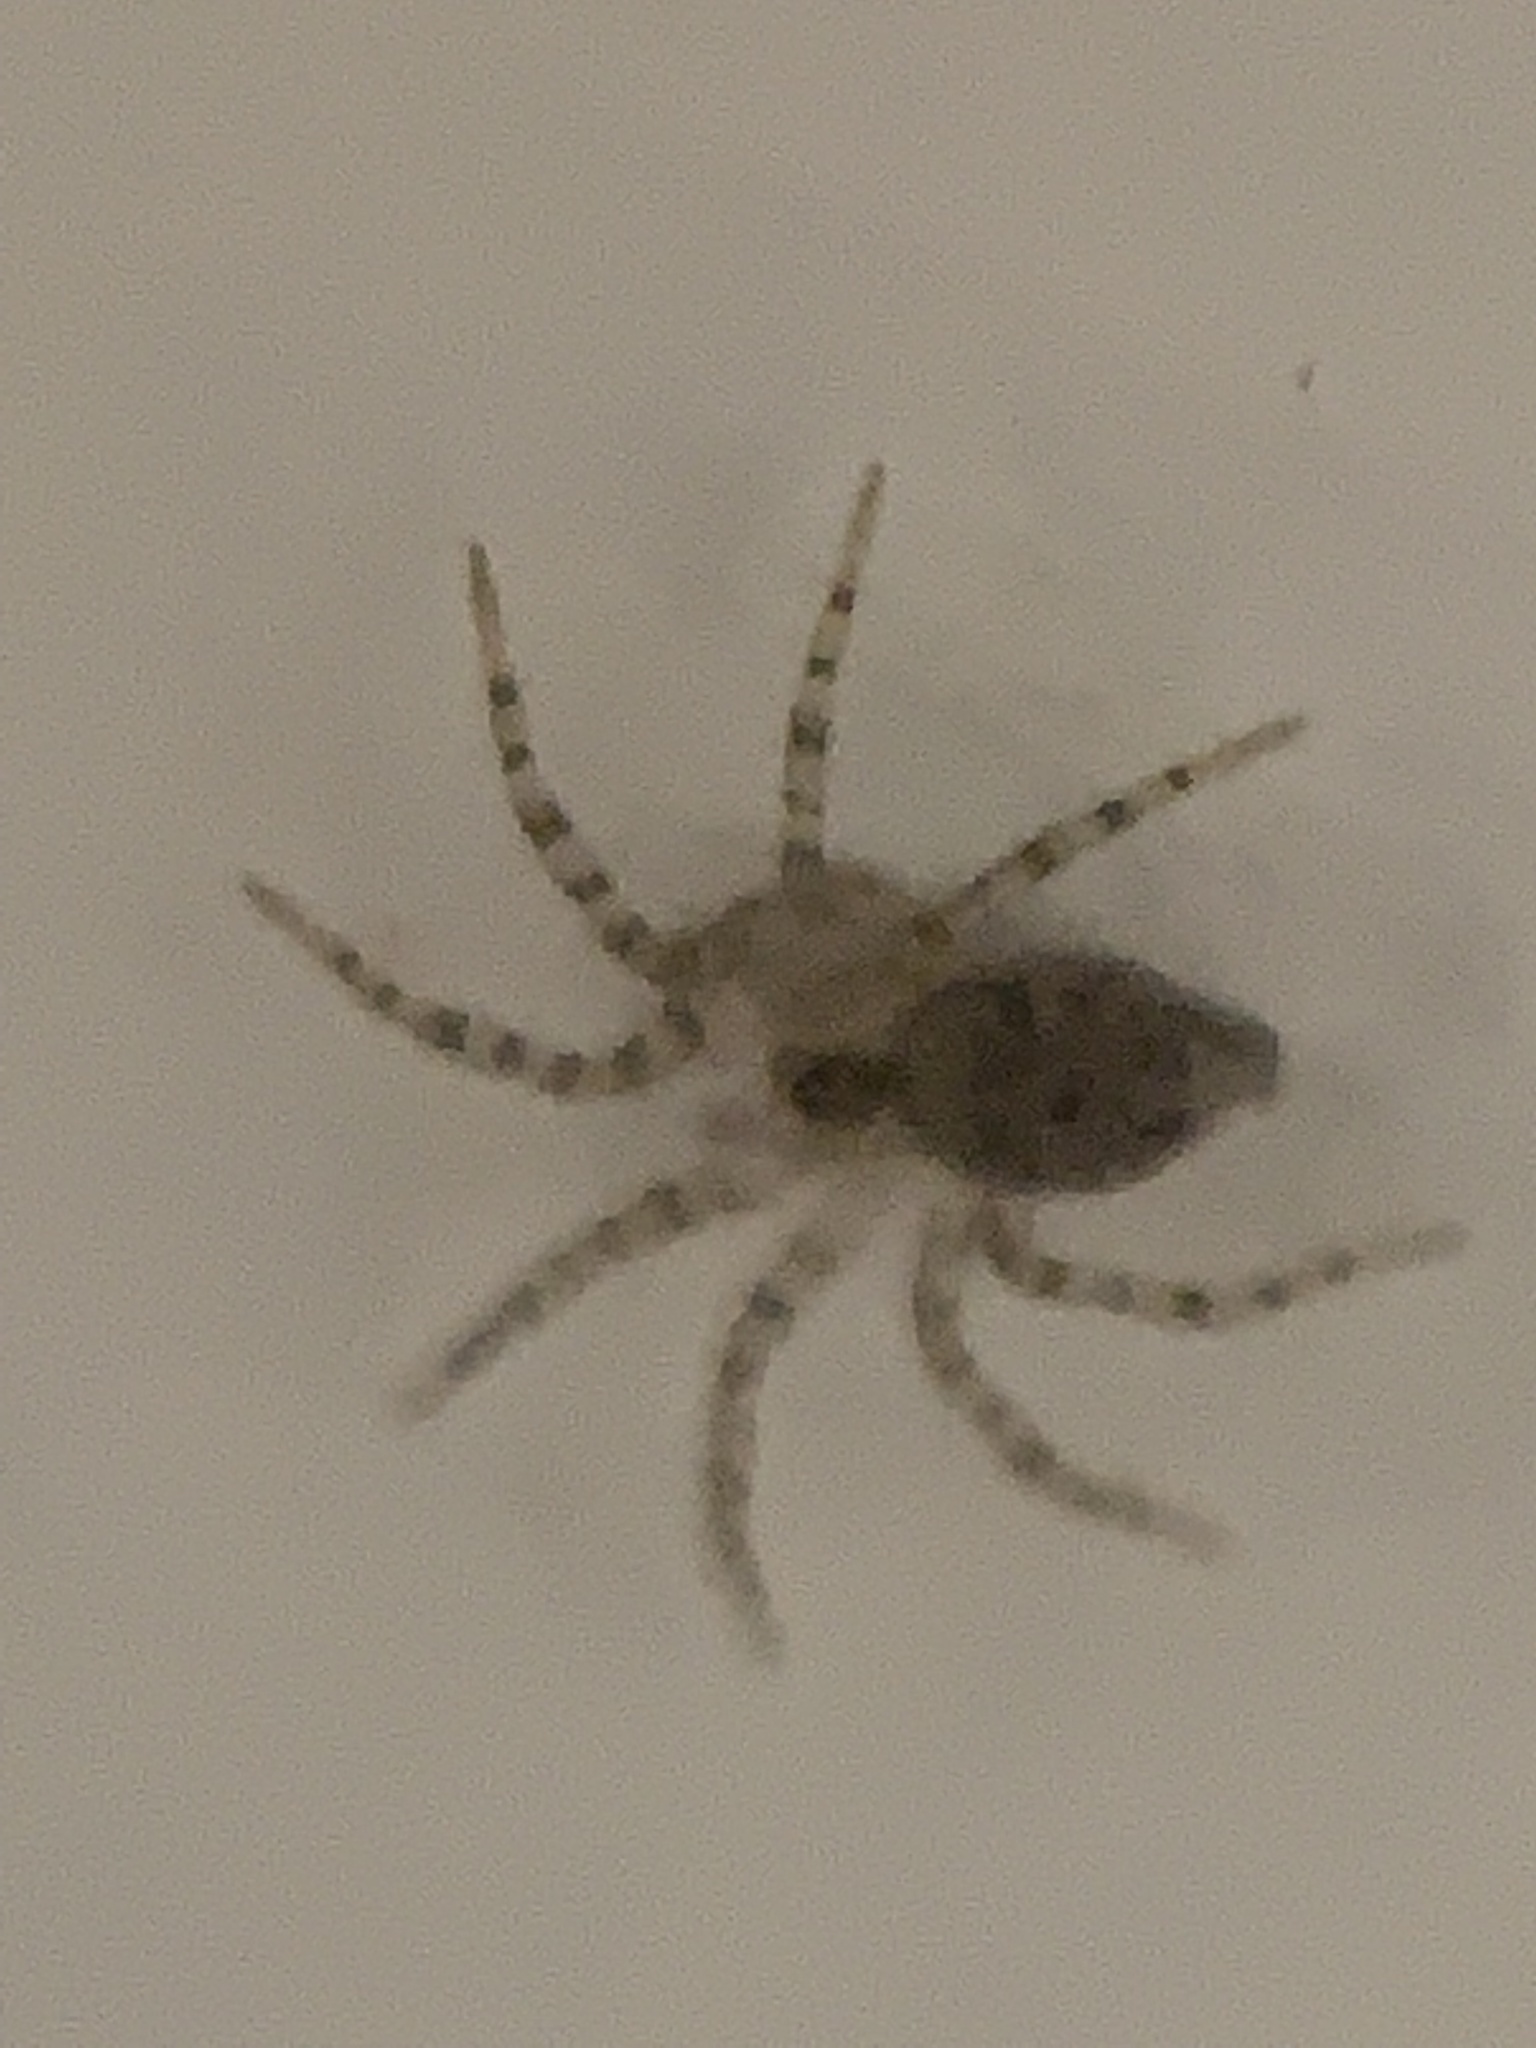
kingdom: Animalia
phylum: Arthropoda
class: Arachnida
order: Araneae
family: Oecobiidae
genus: Oecobius
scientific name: Oecobius navus
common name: Flatmesh weaver
